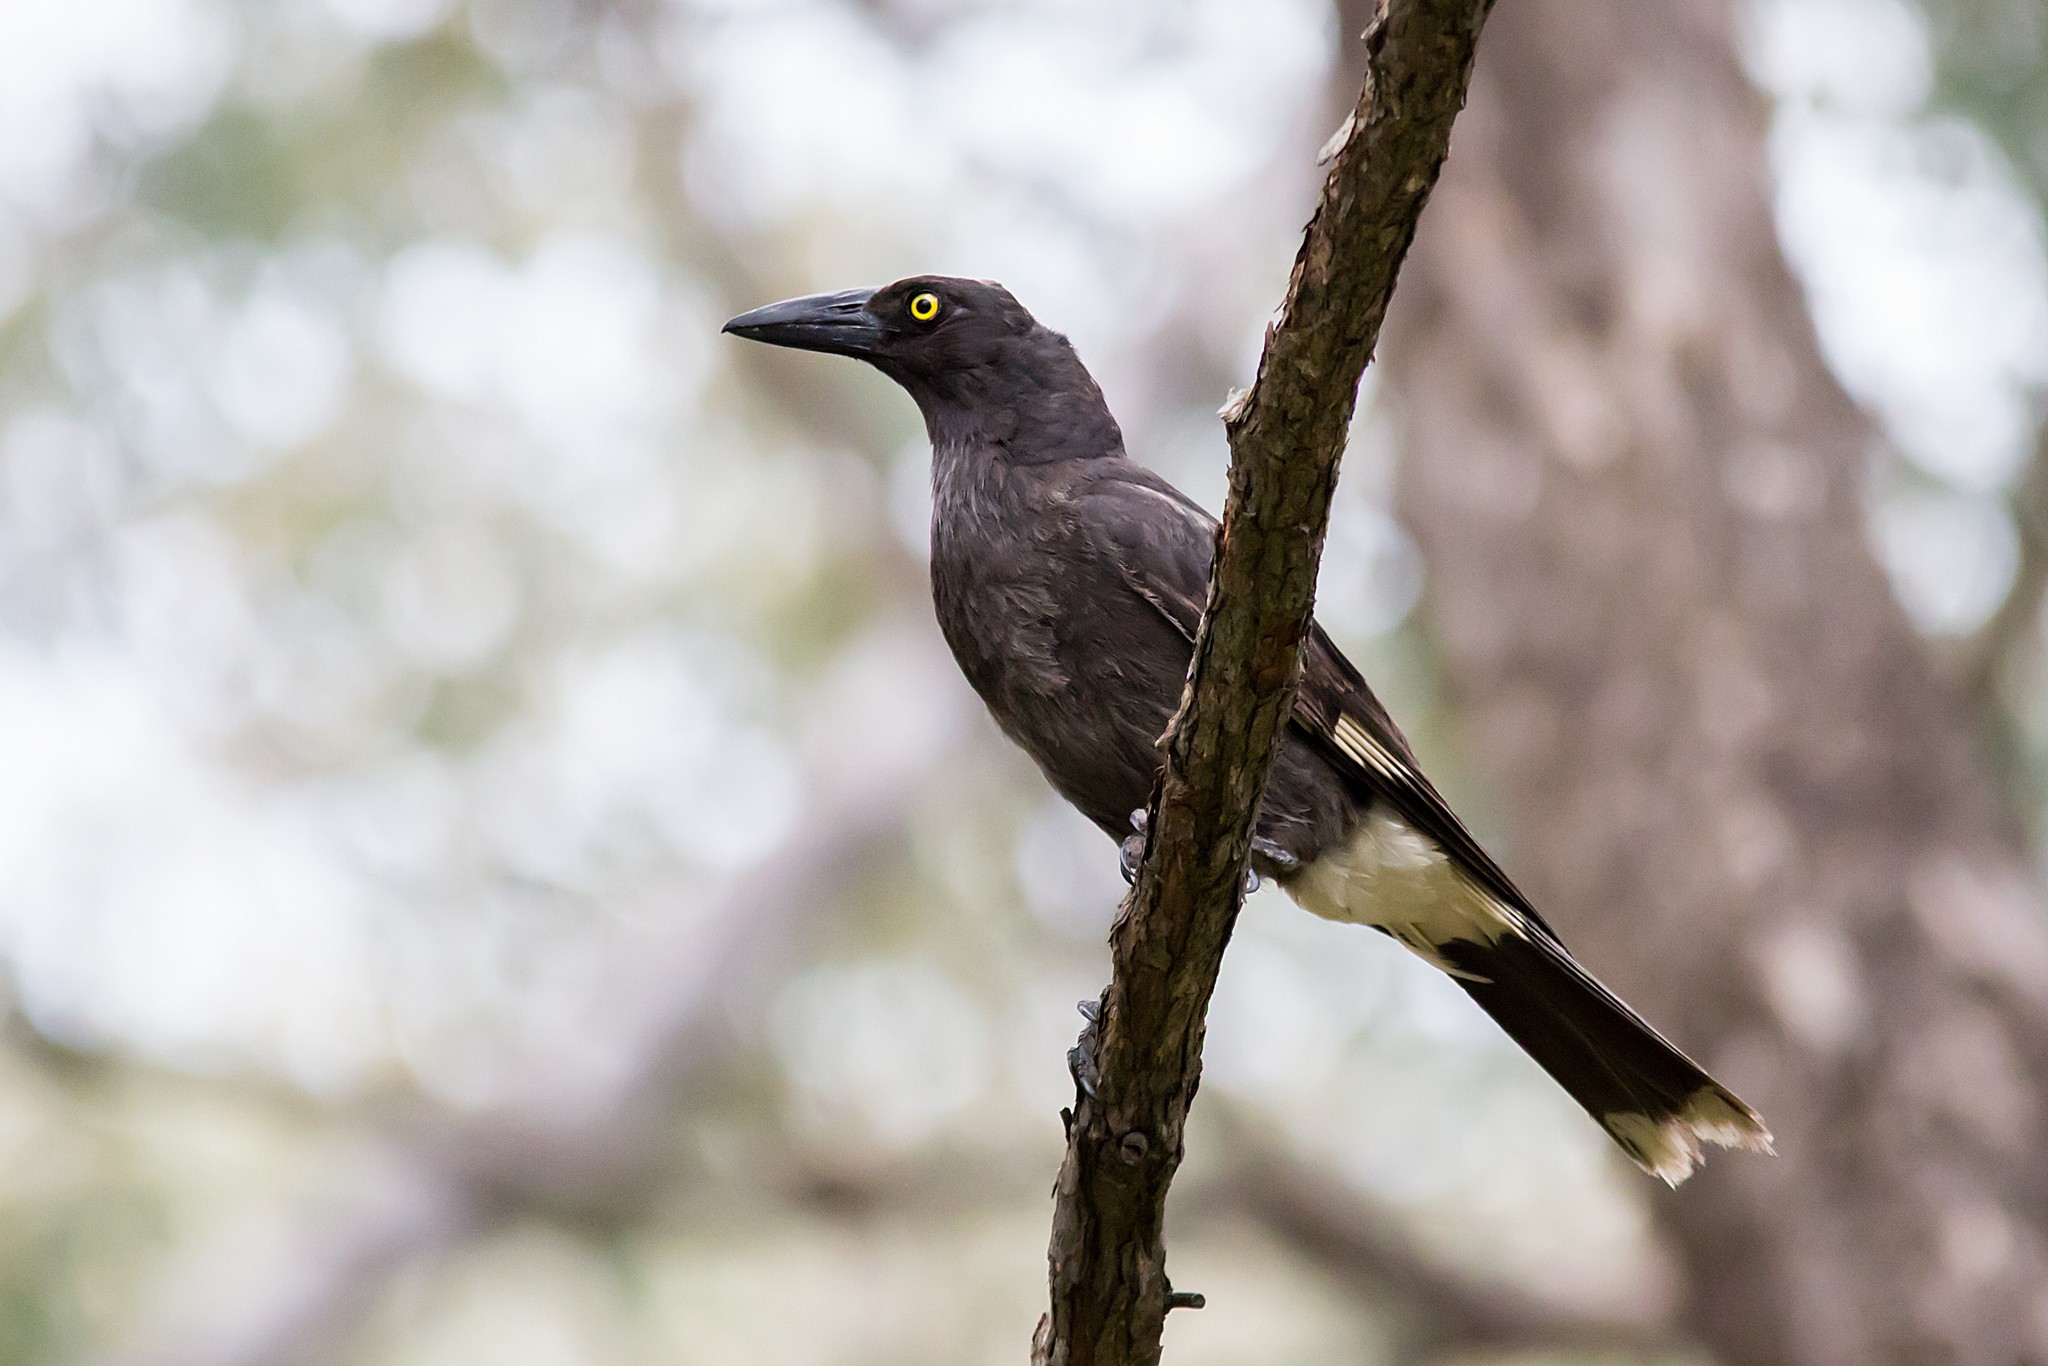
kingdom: Animalia
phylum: Chordata
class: Aves
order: Passeriformes
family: Cracticidae
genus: Strepera
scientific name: Strepera graculina
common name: Pied currawong
